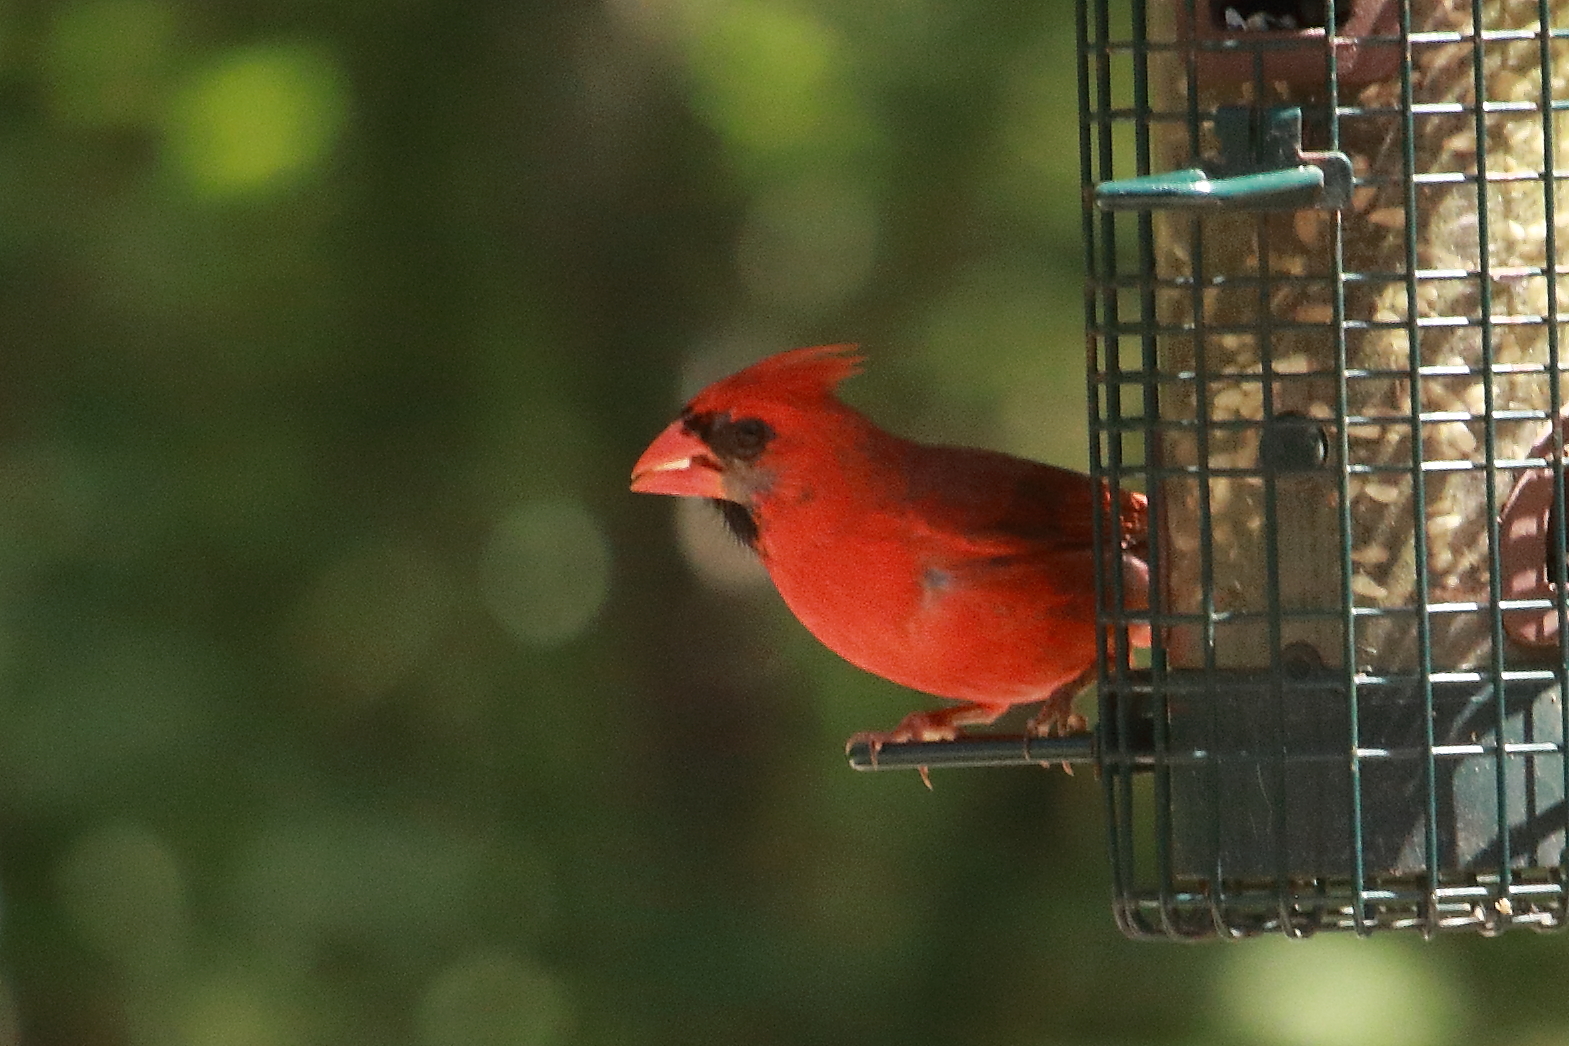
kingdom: Animalia
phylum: Chordata
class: Aves
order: Passeriformes
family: Cardinalidae
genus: Cardinalis
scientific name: Cardinalis cardinalis
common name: Northern cardinal
